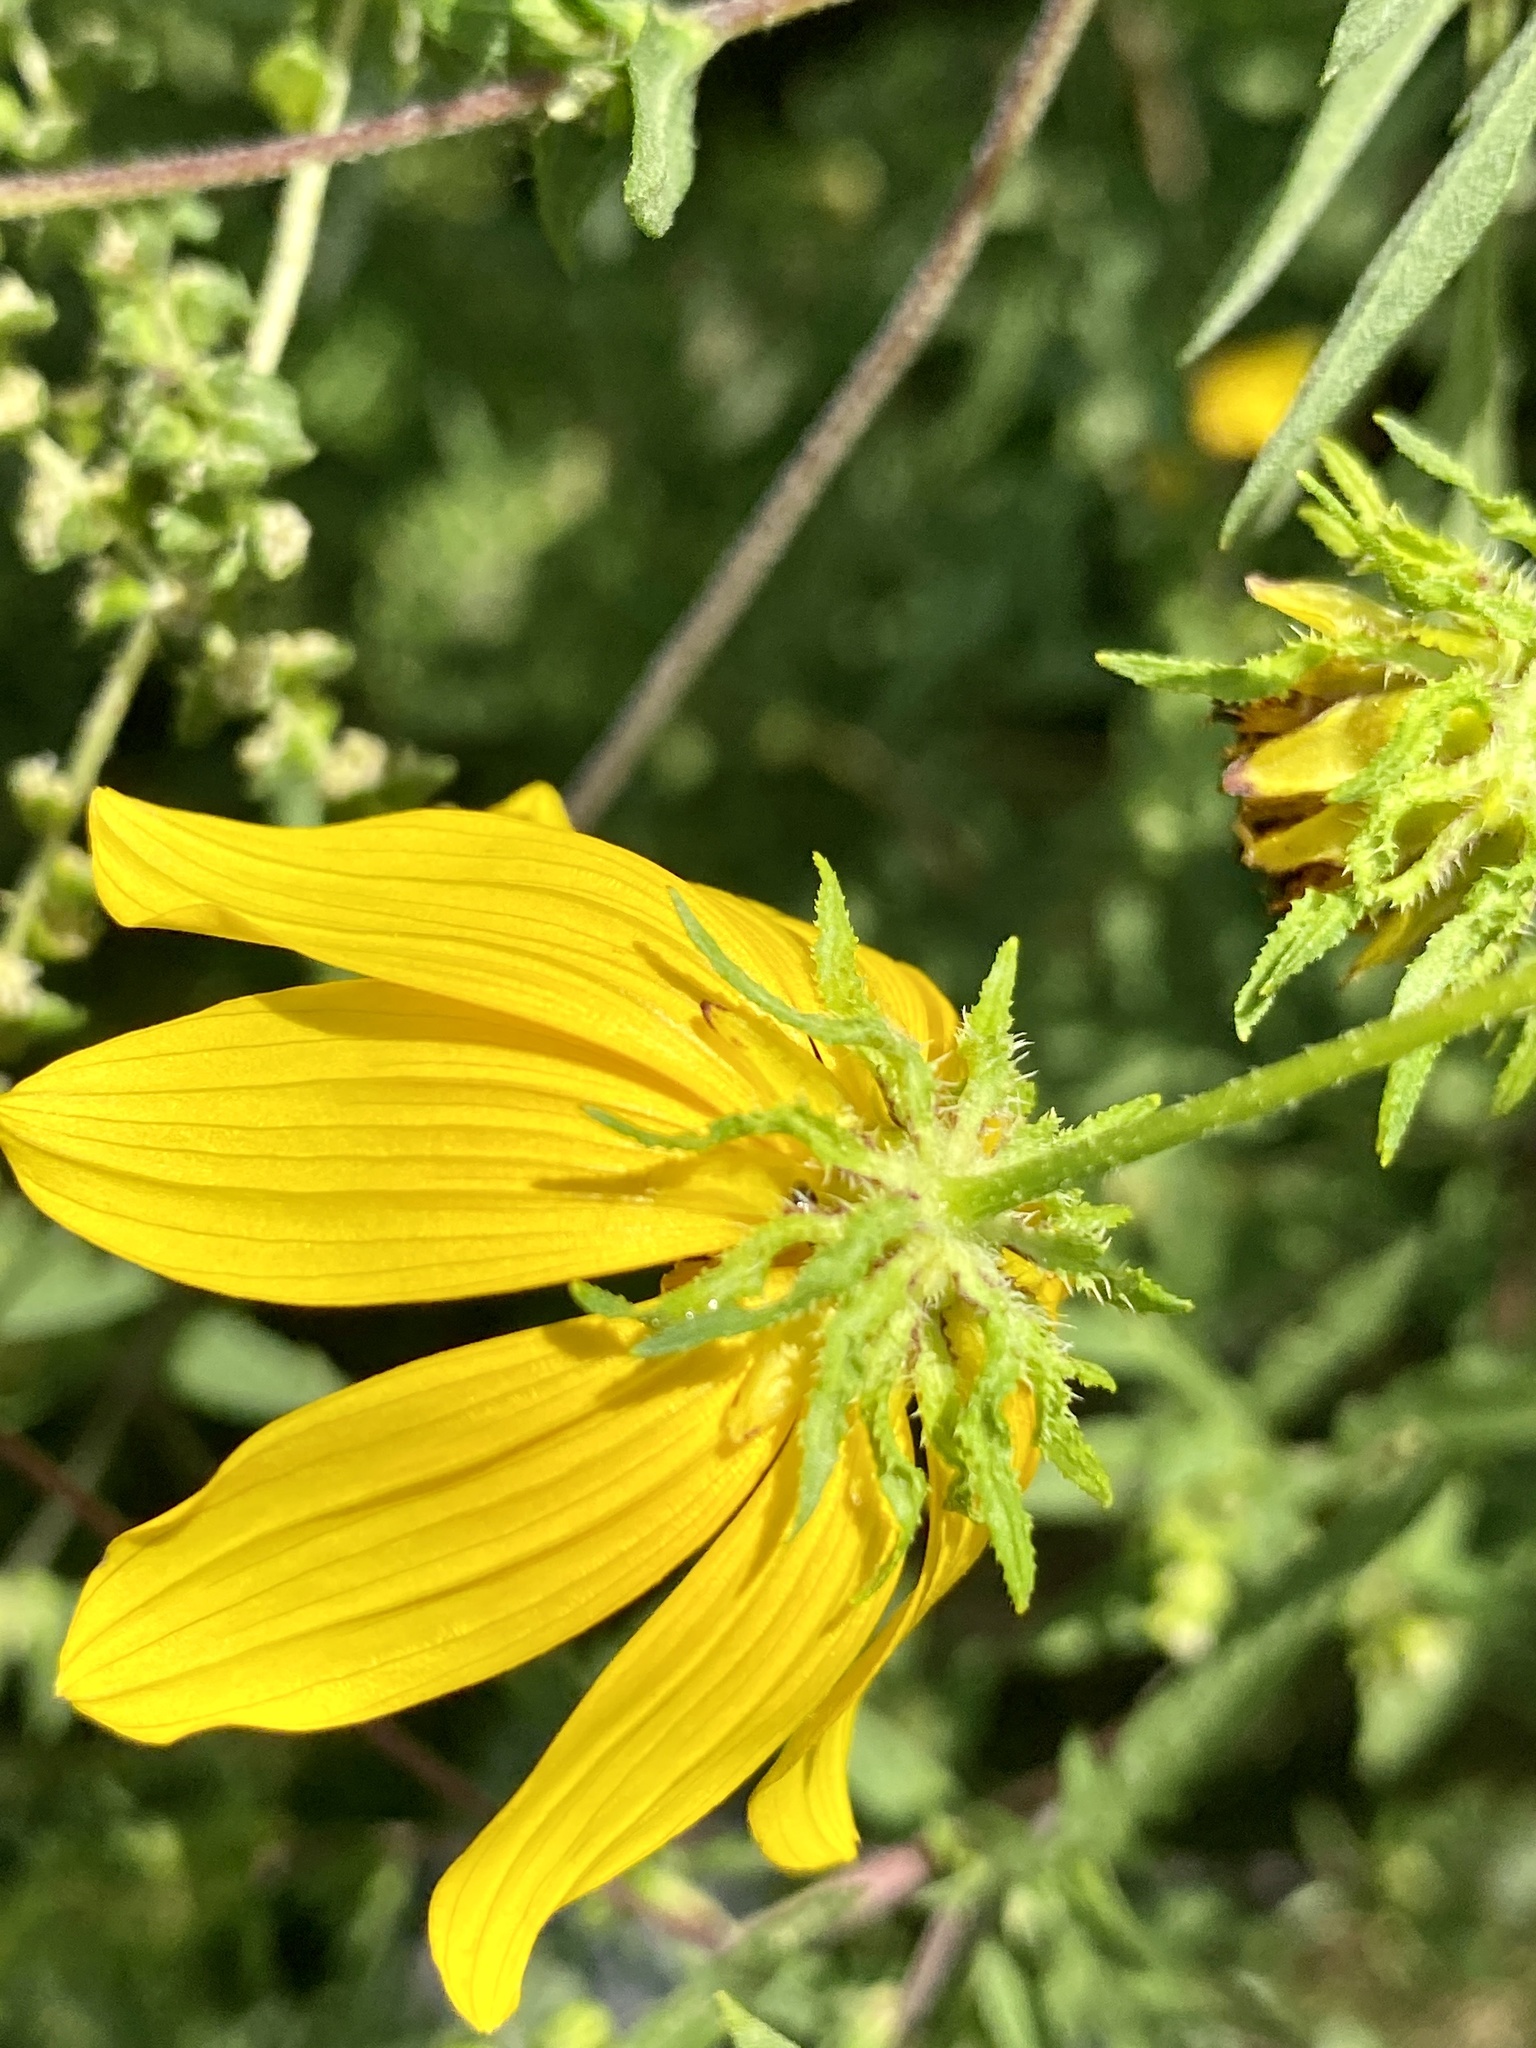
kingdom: Plantae
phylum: Tracheophyta
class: Magnoliopsida
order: Asterales
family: Asteraceae
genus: Bidens
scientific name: Bidens polylepis
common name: Awnless beggarticks
